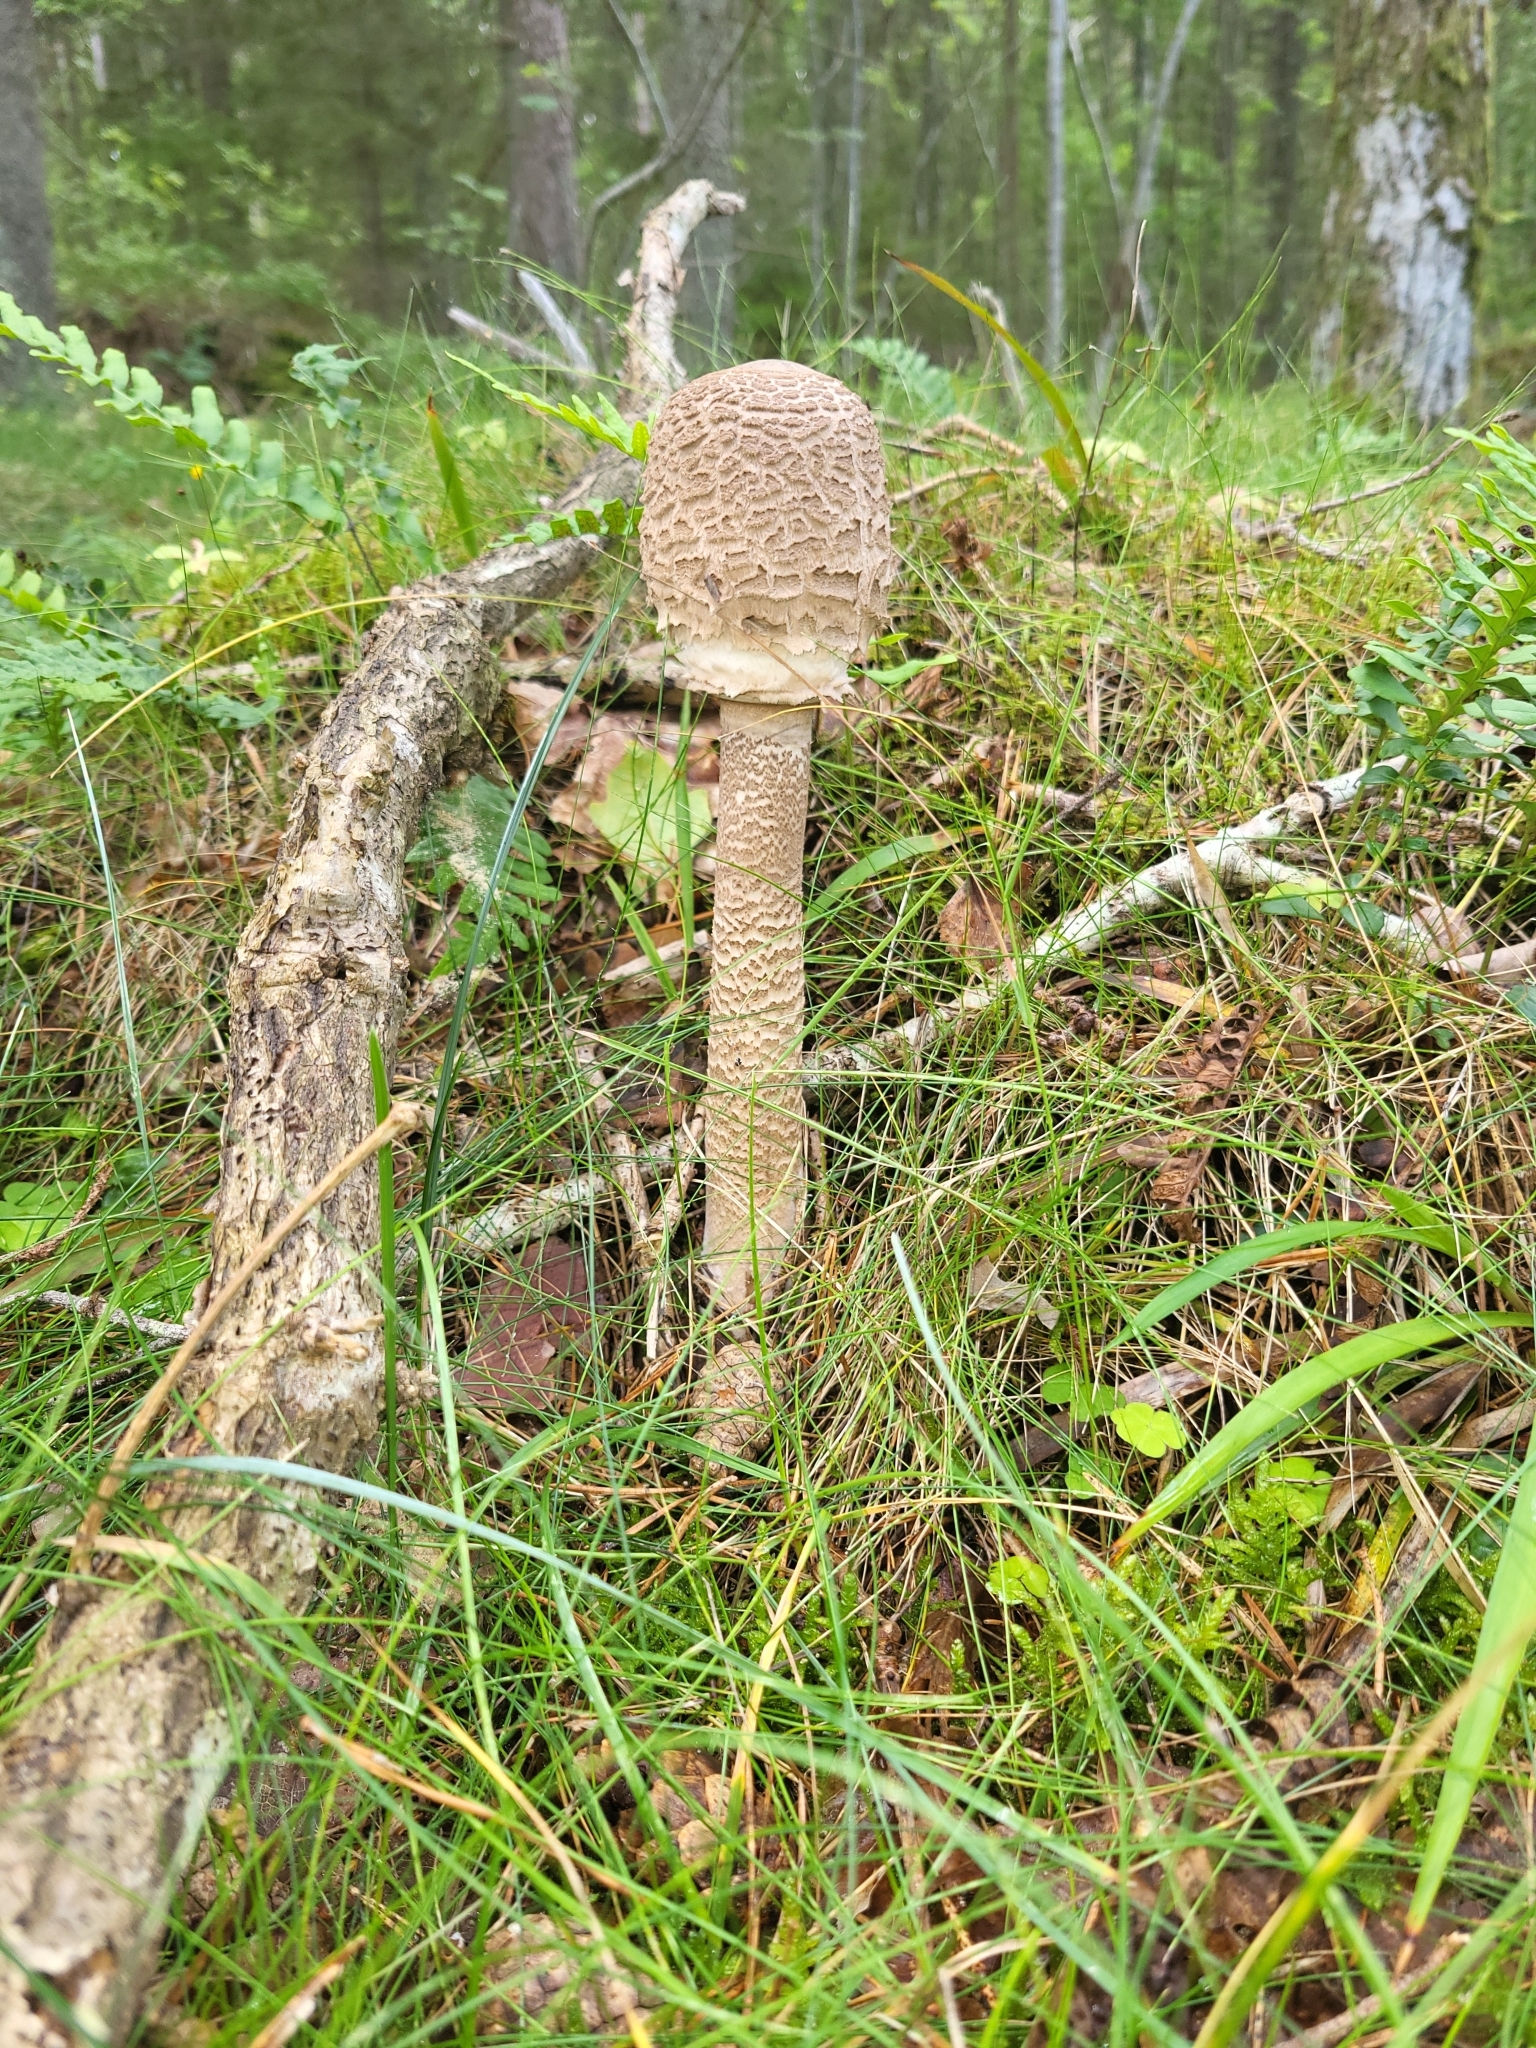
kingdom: Fungi
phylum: Basidiomycota
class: Agaricomycetes
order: Agaricales
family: Agaricaceae
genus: Macrolepiota
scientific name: Macrolepiota procera
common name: Parasol
